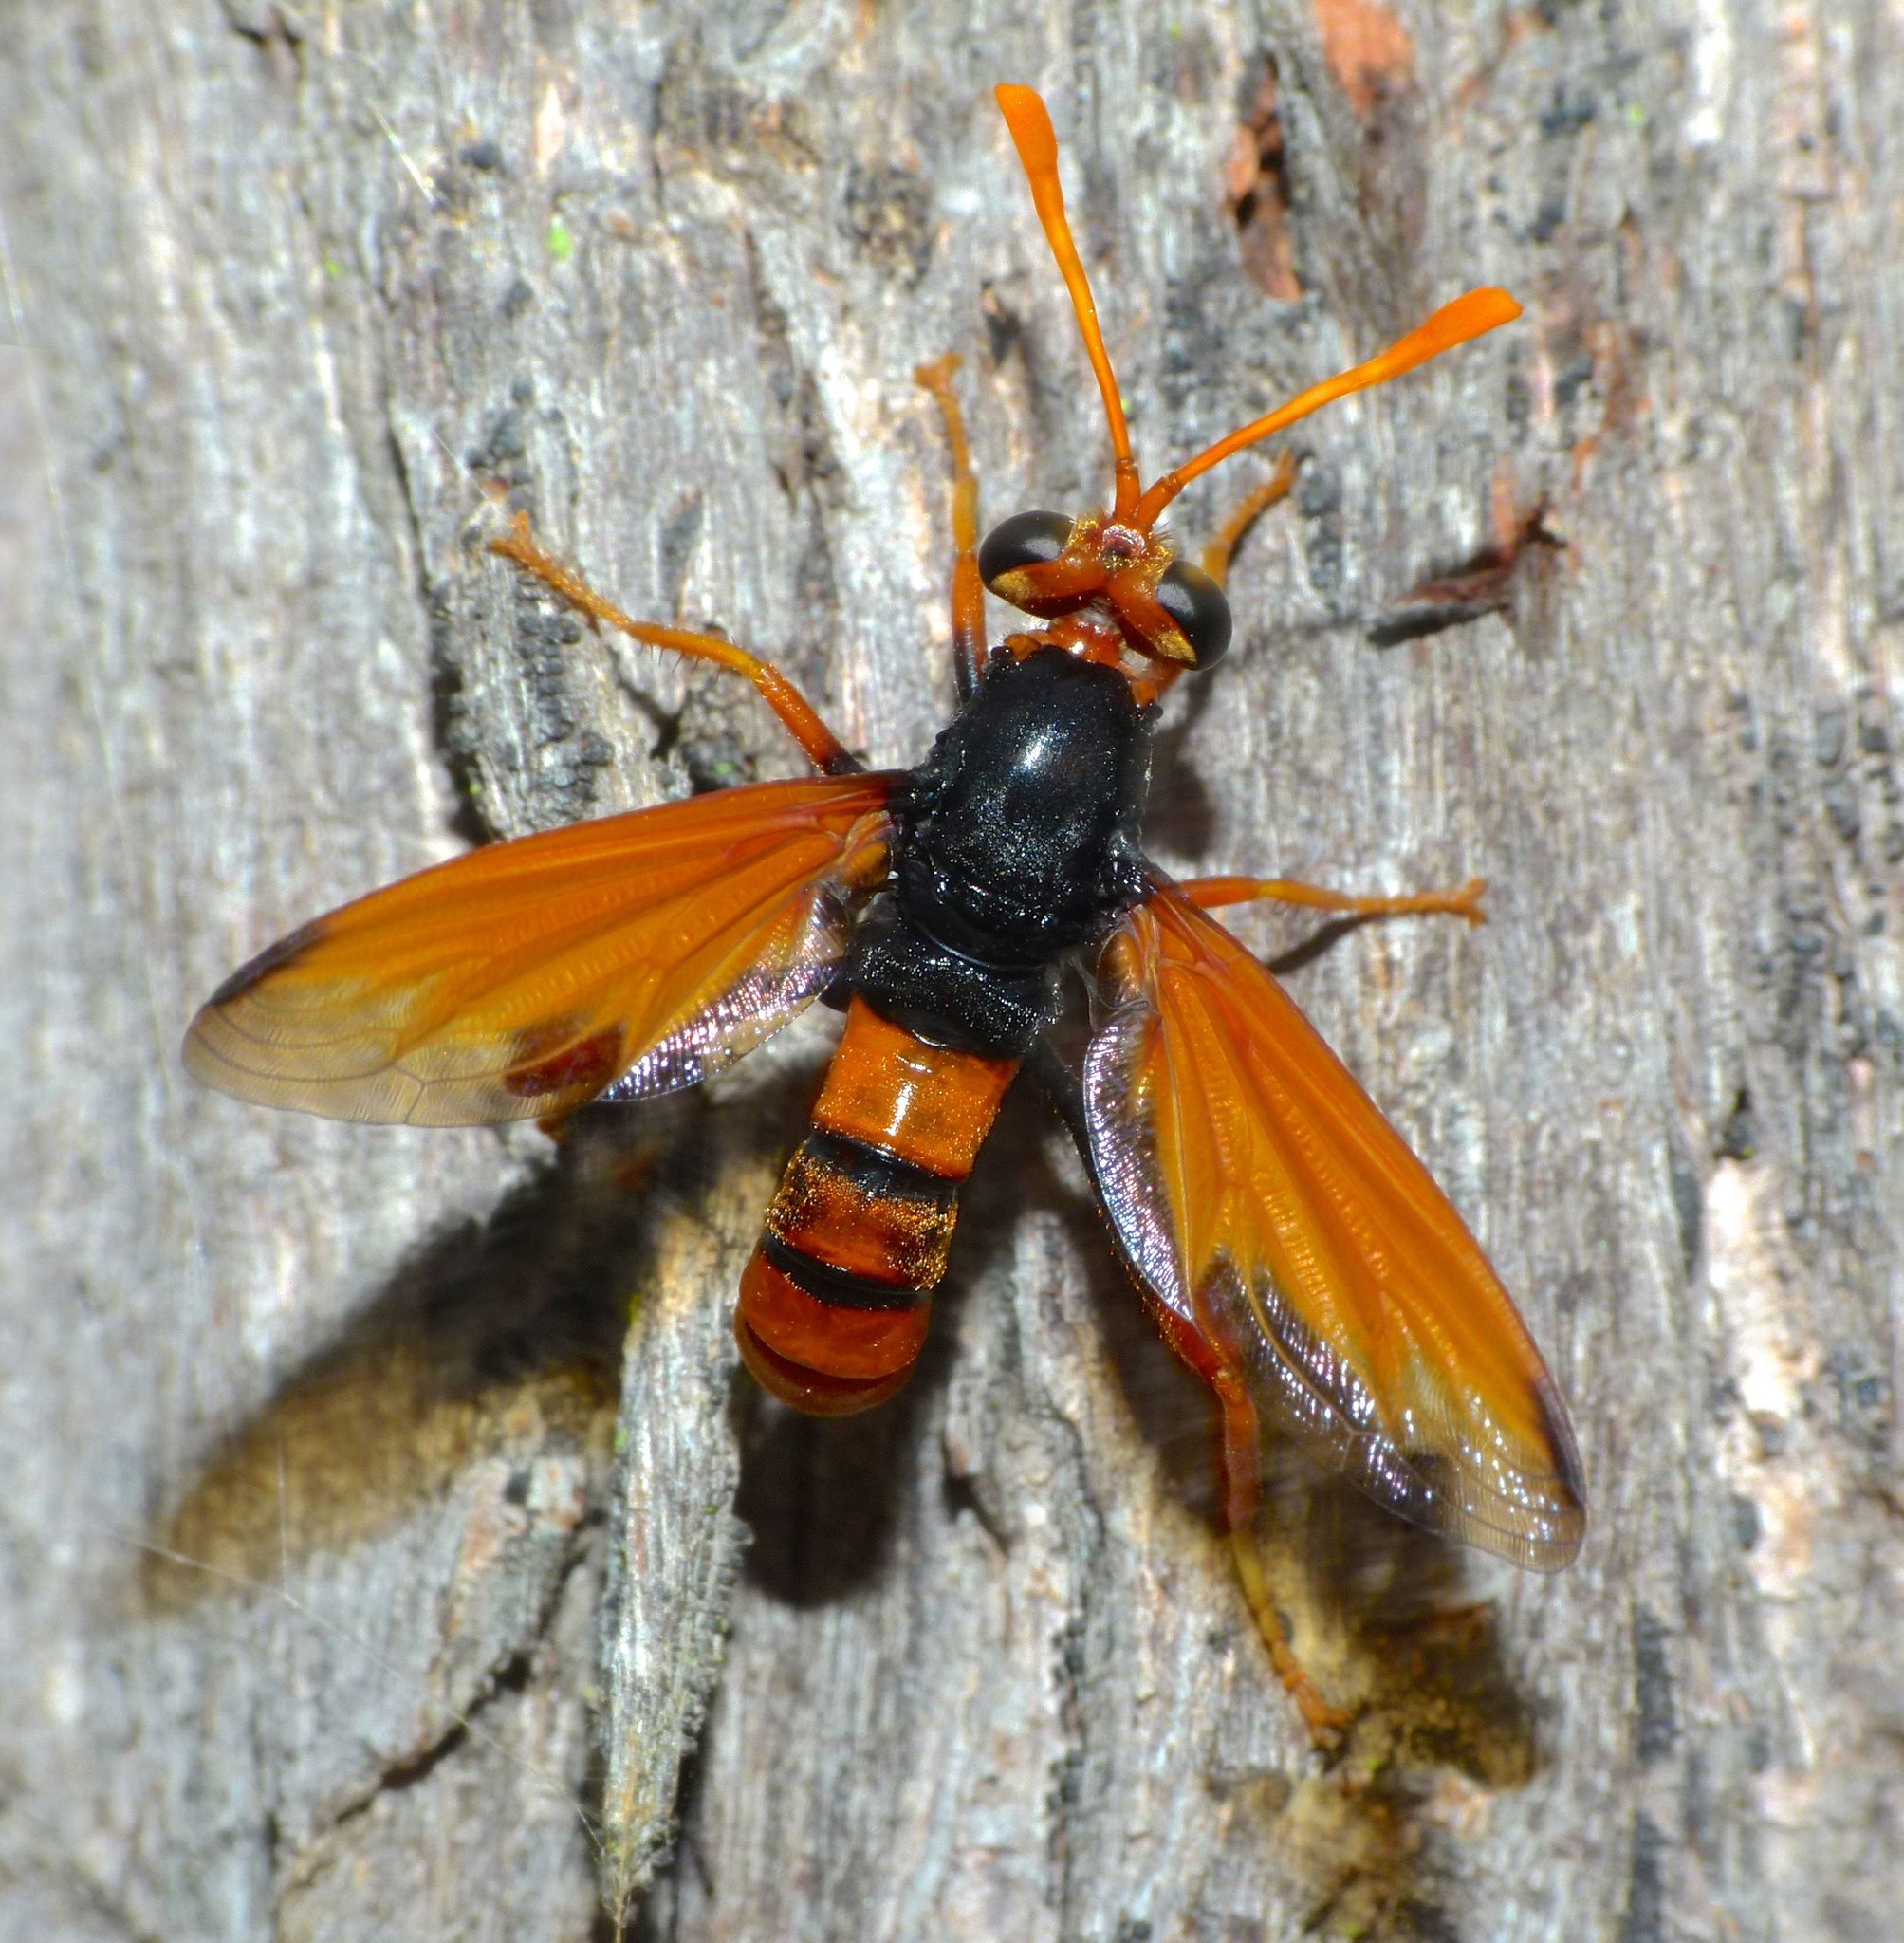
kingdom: Animalia
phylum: Arthropoda
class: Insecta
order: Diptera
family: Mydidae
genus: Diochlistus
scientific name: Diochlistus auripennis
